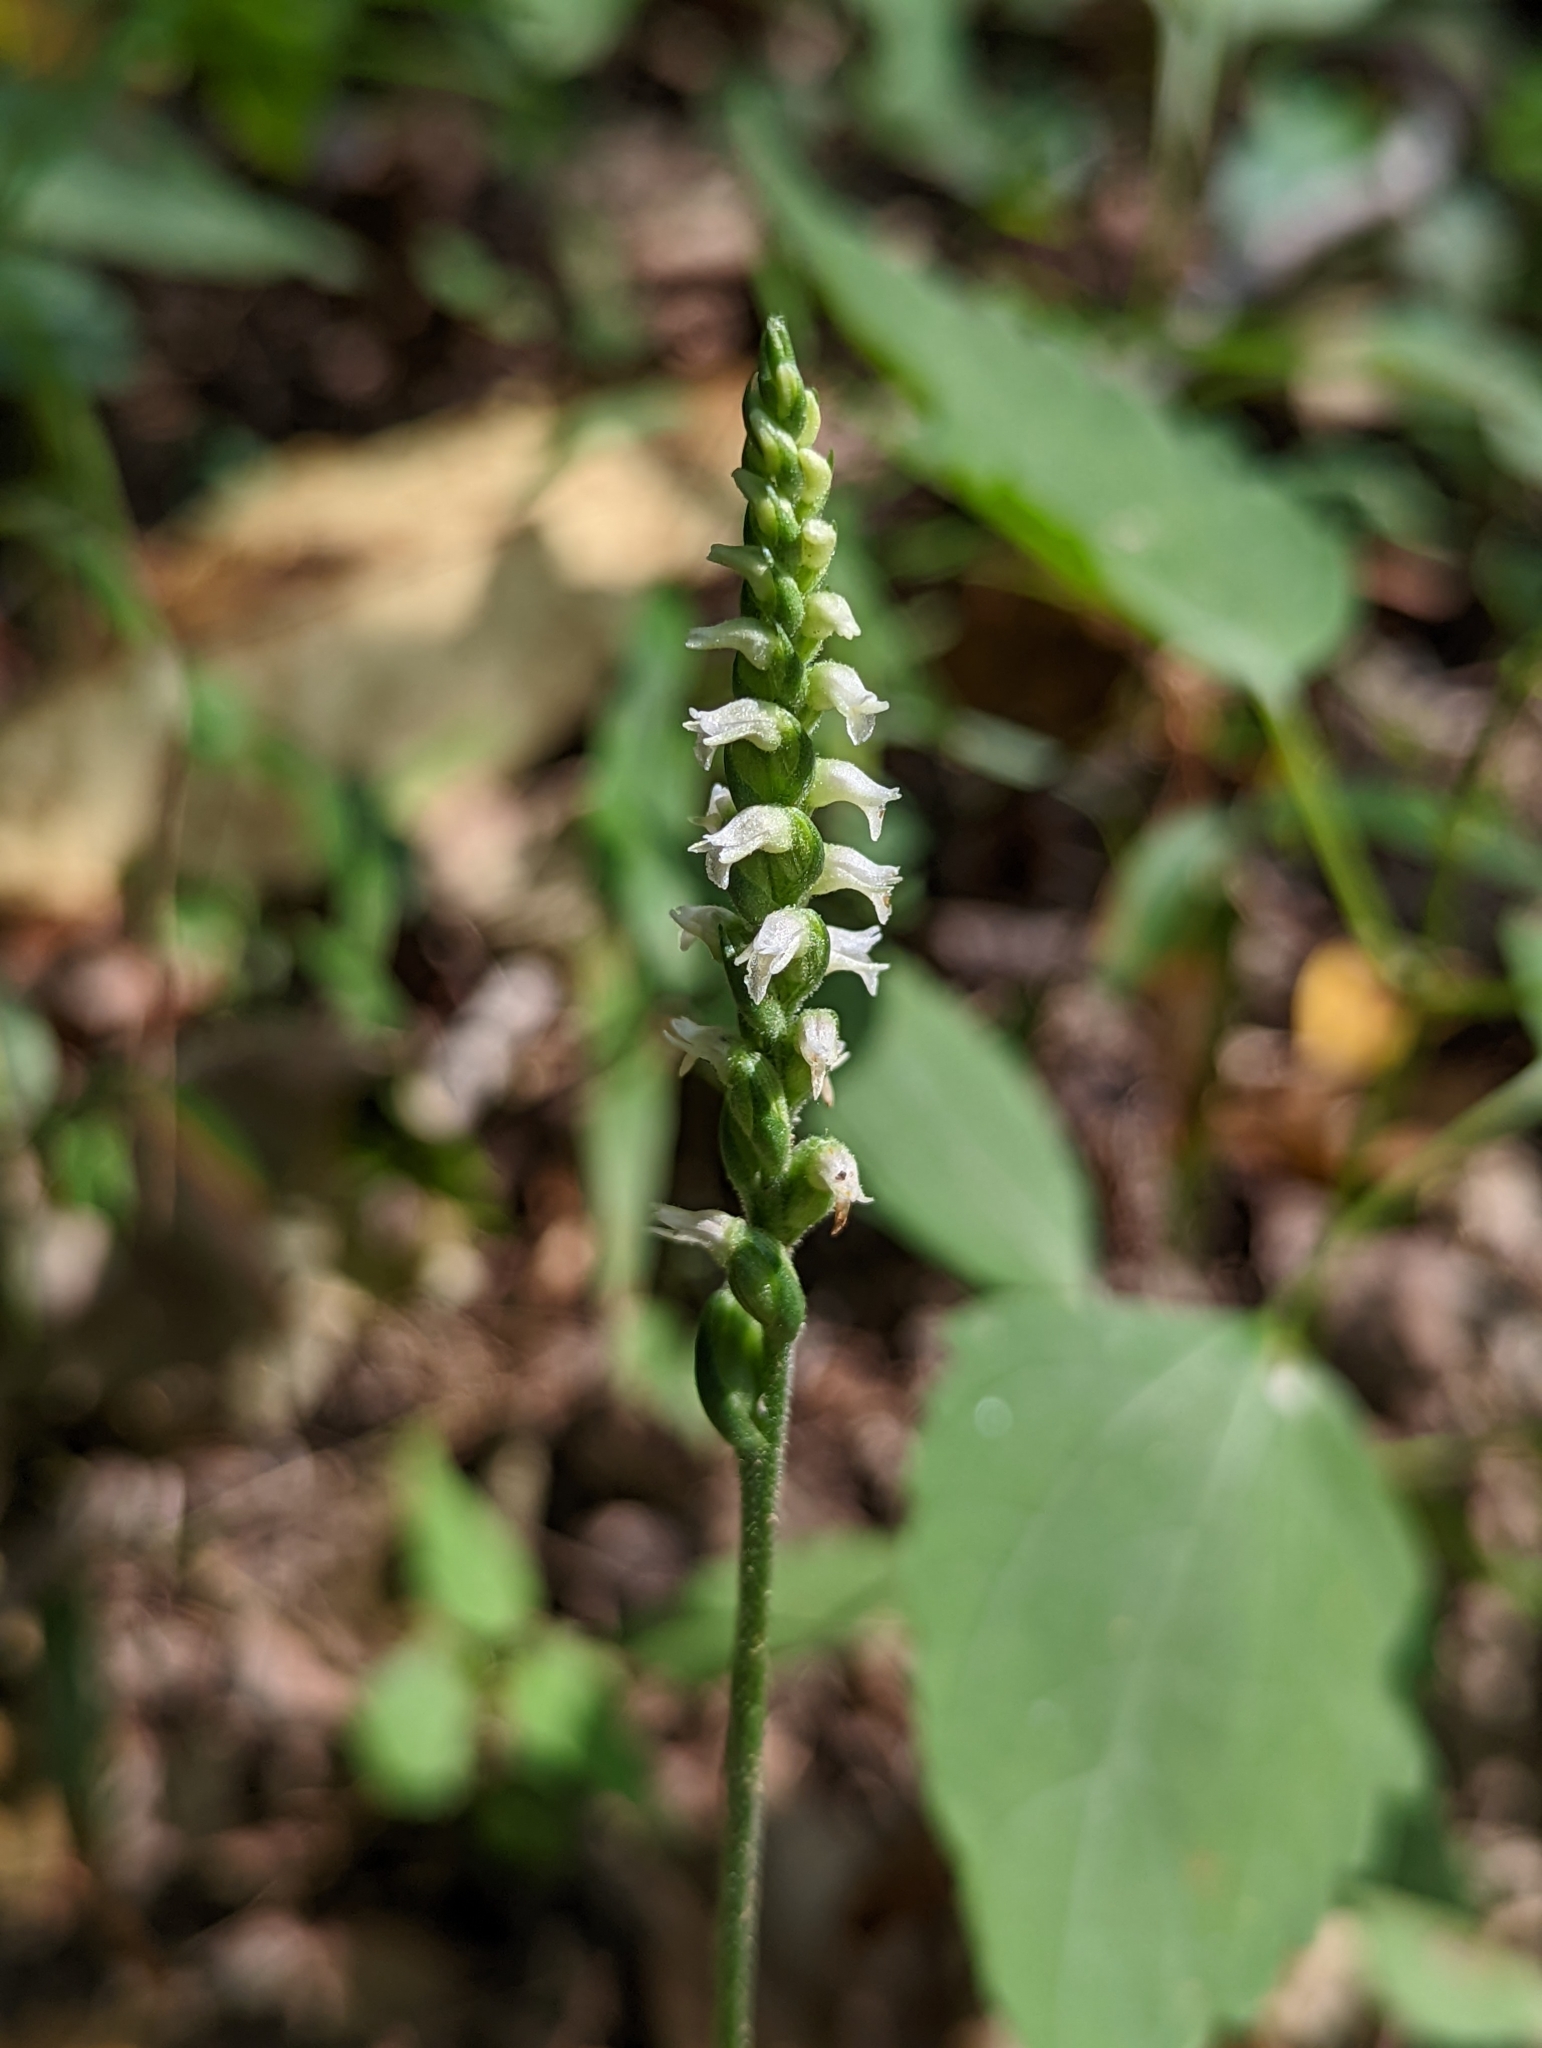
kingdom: Plantae
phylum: Tracheophyta
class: Liliopsida
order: Asparagales
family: Orchidaceae
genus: Spiranthes
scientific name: Spiranthes ovalis
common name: October ladies'-tresses
